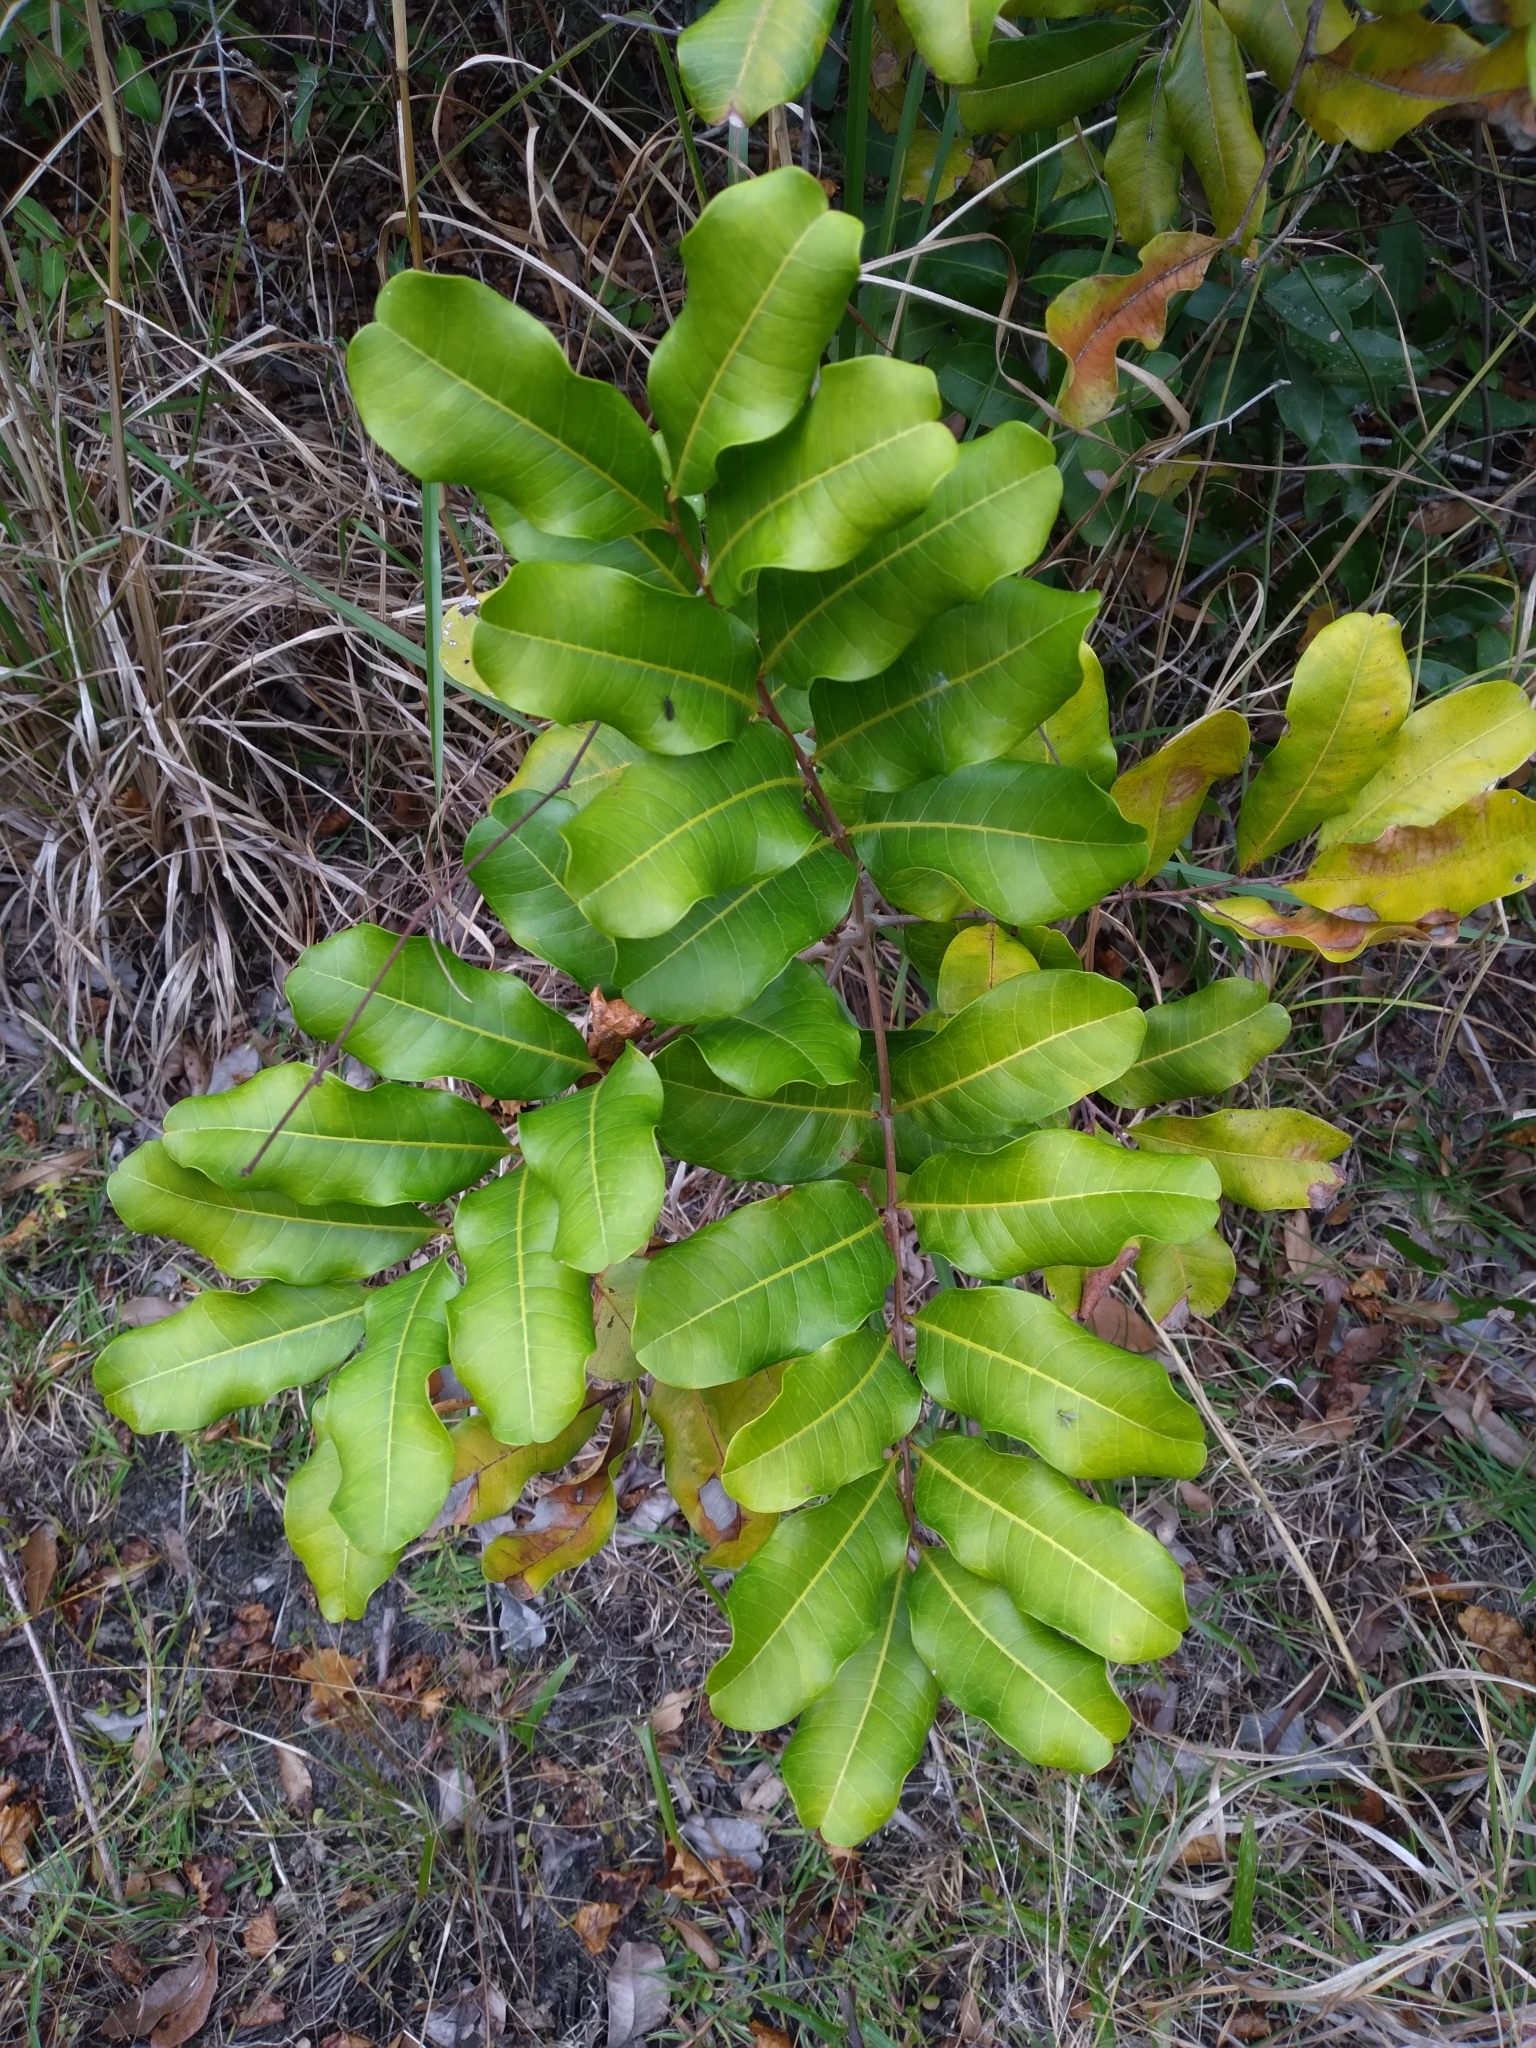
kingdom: Plantae
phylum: Tracheophyta
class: Magnoliopsida
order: Sapindales
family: Sapindaceae
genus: Cupaniopsis
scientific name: Cupaniopsis anacardioides
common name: Carrotwood
